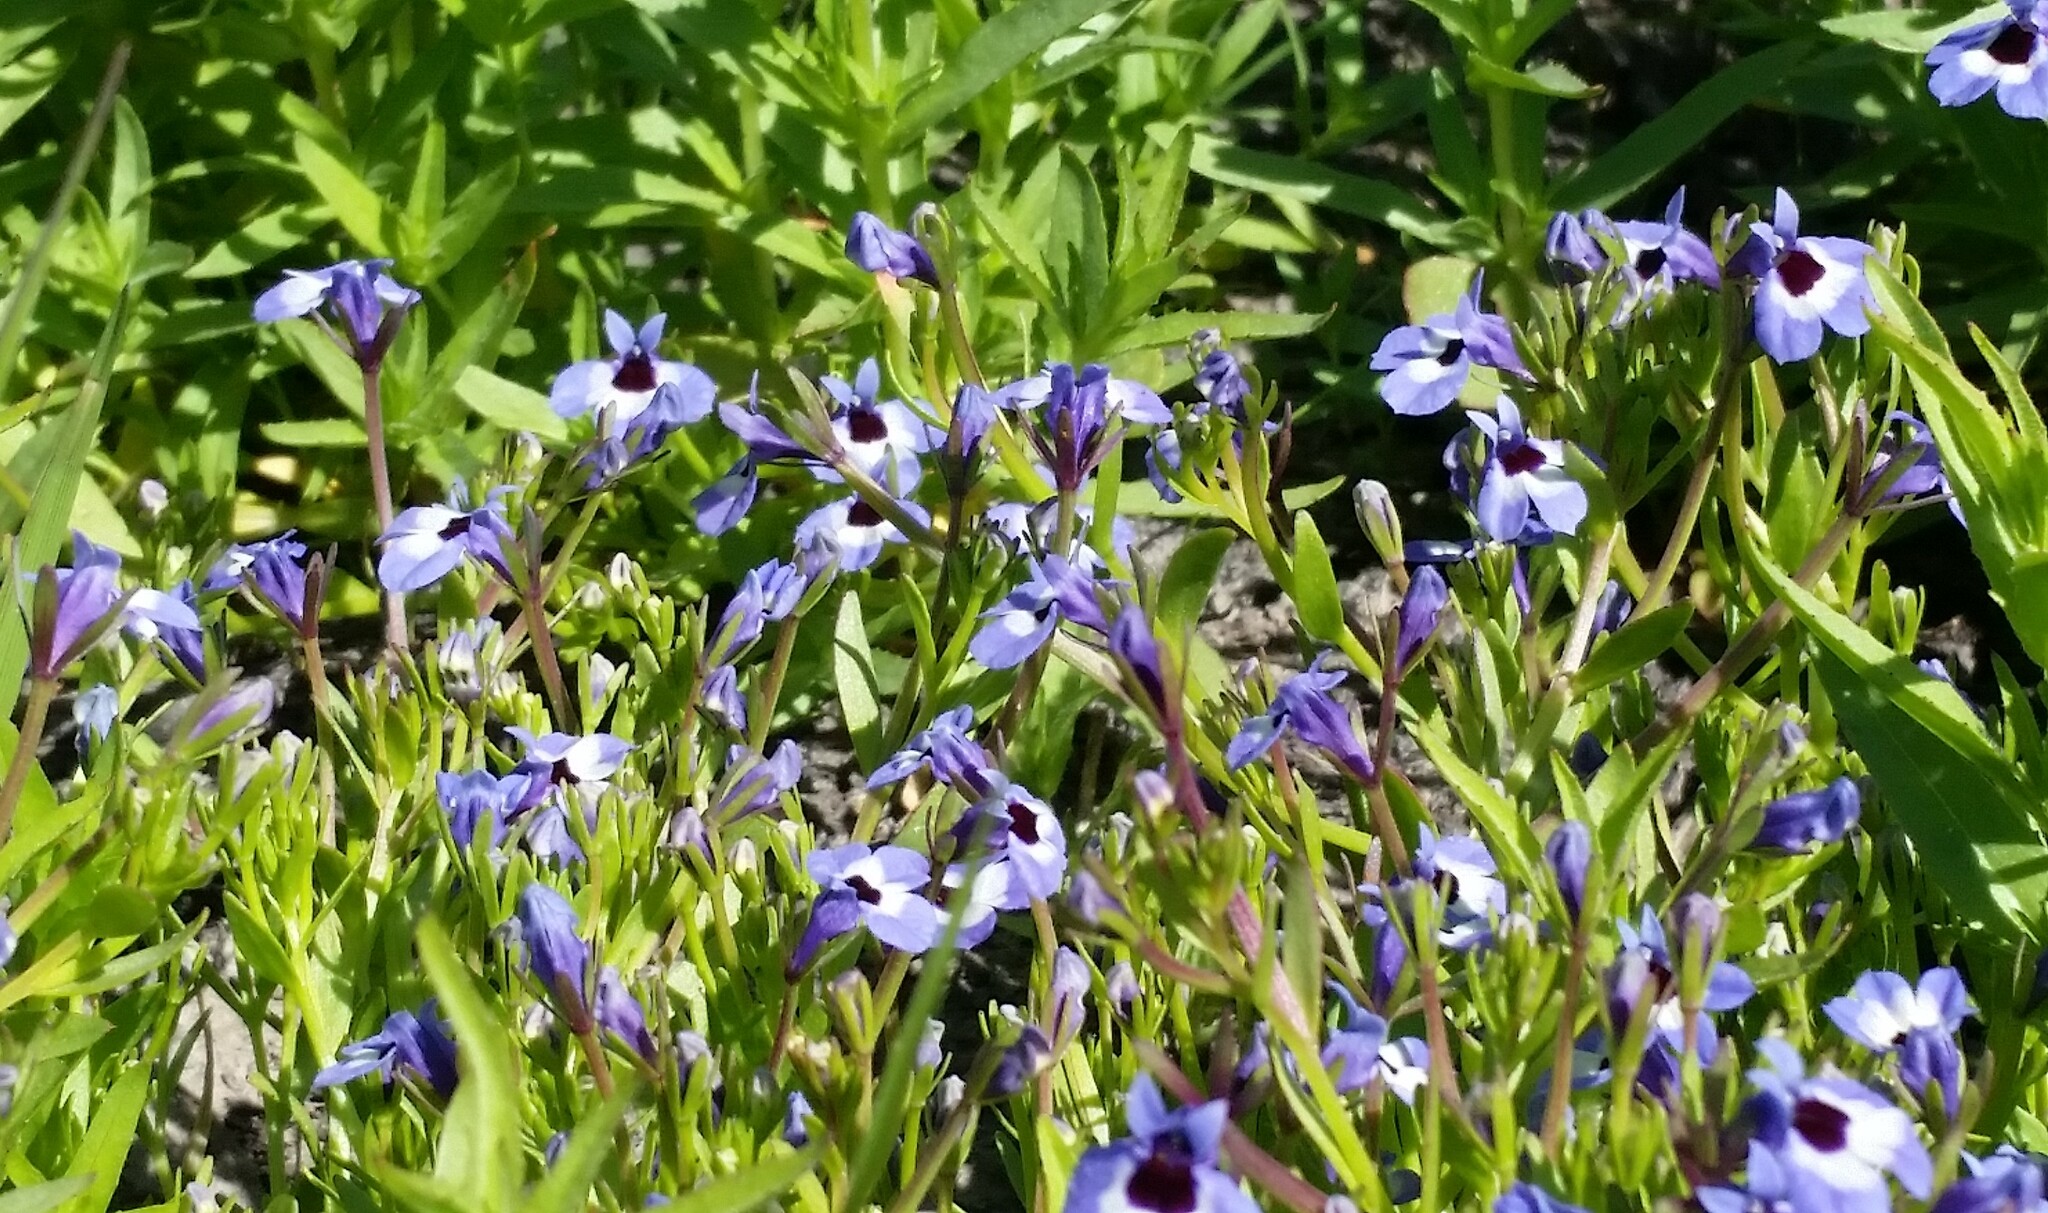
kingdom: Plantae
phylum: Tracheophyta
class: Magnoliopsida
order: Asterales
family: Campanulaceae
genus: Downingia
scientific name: Downingia concolor
